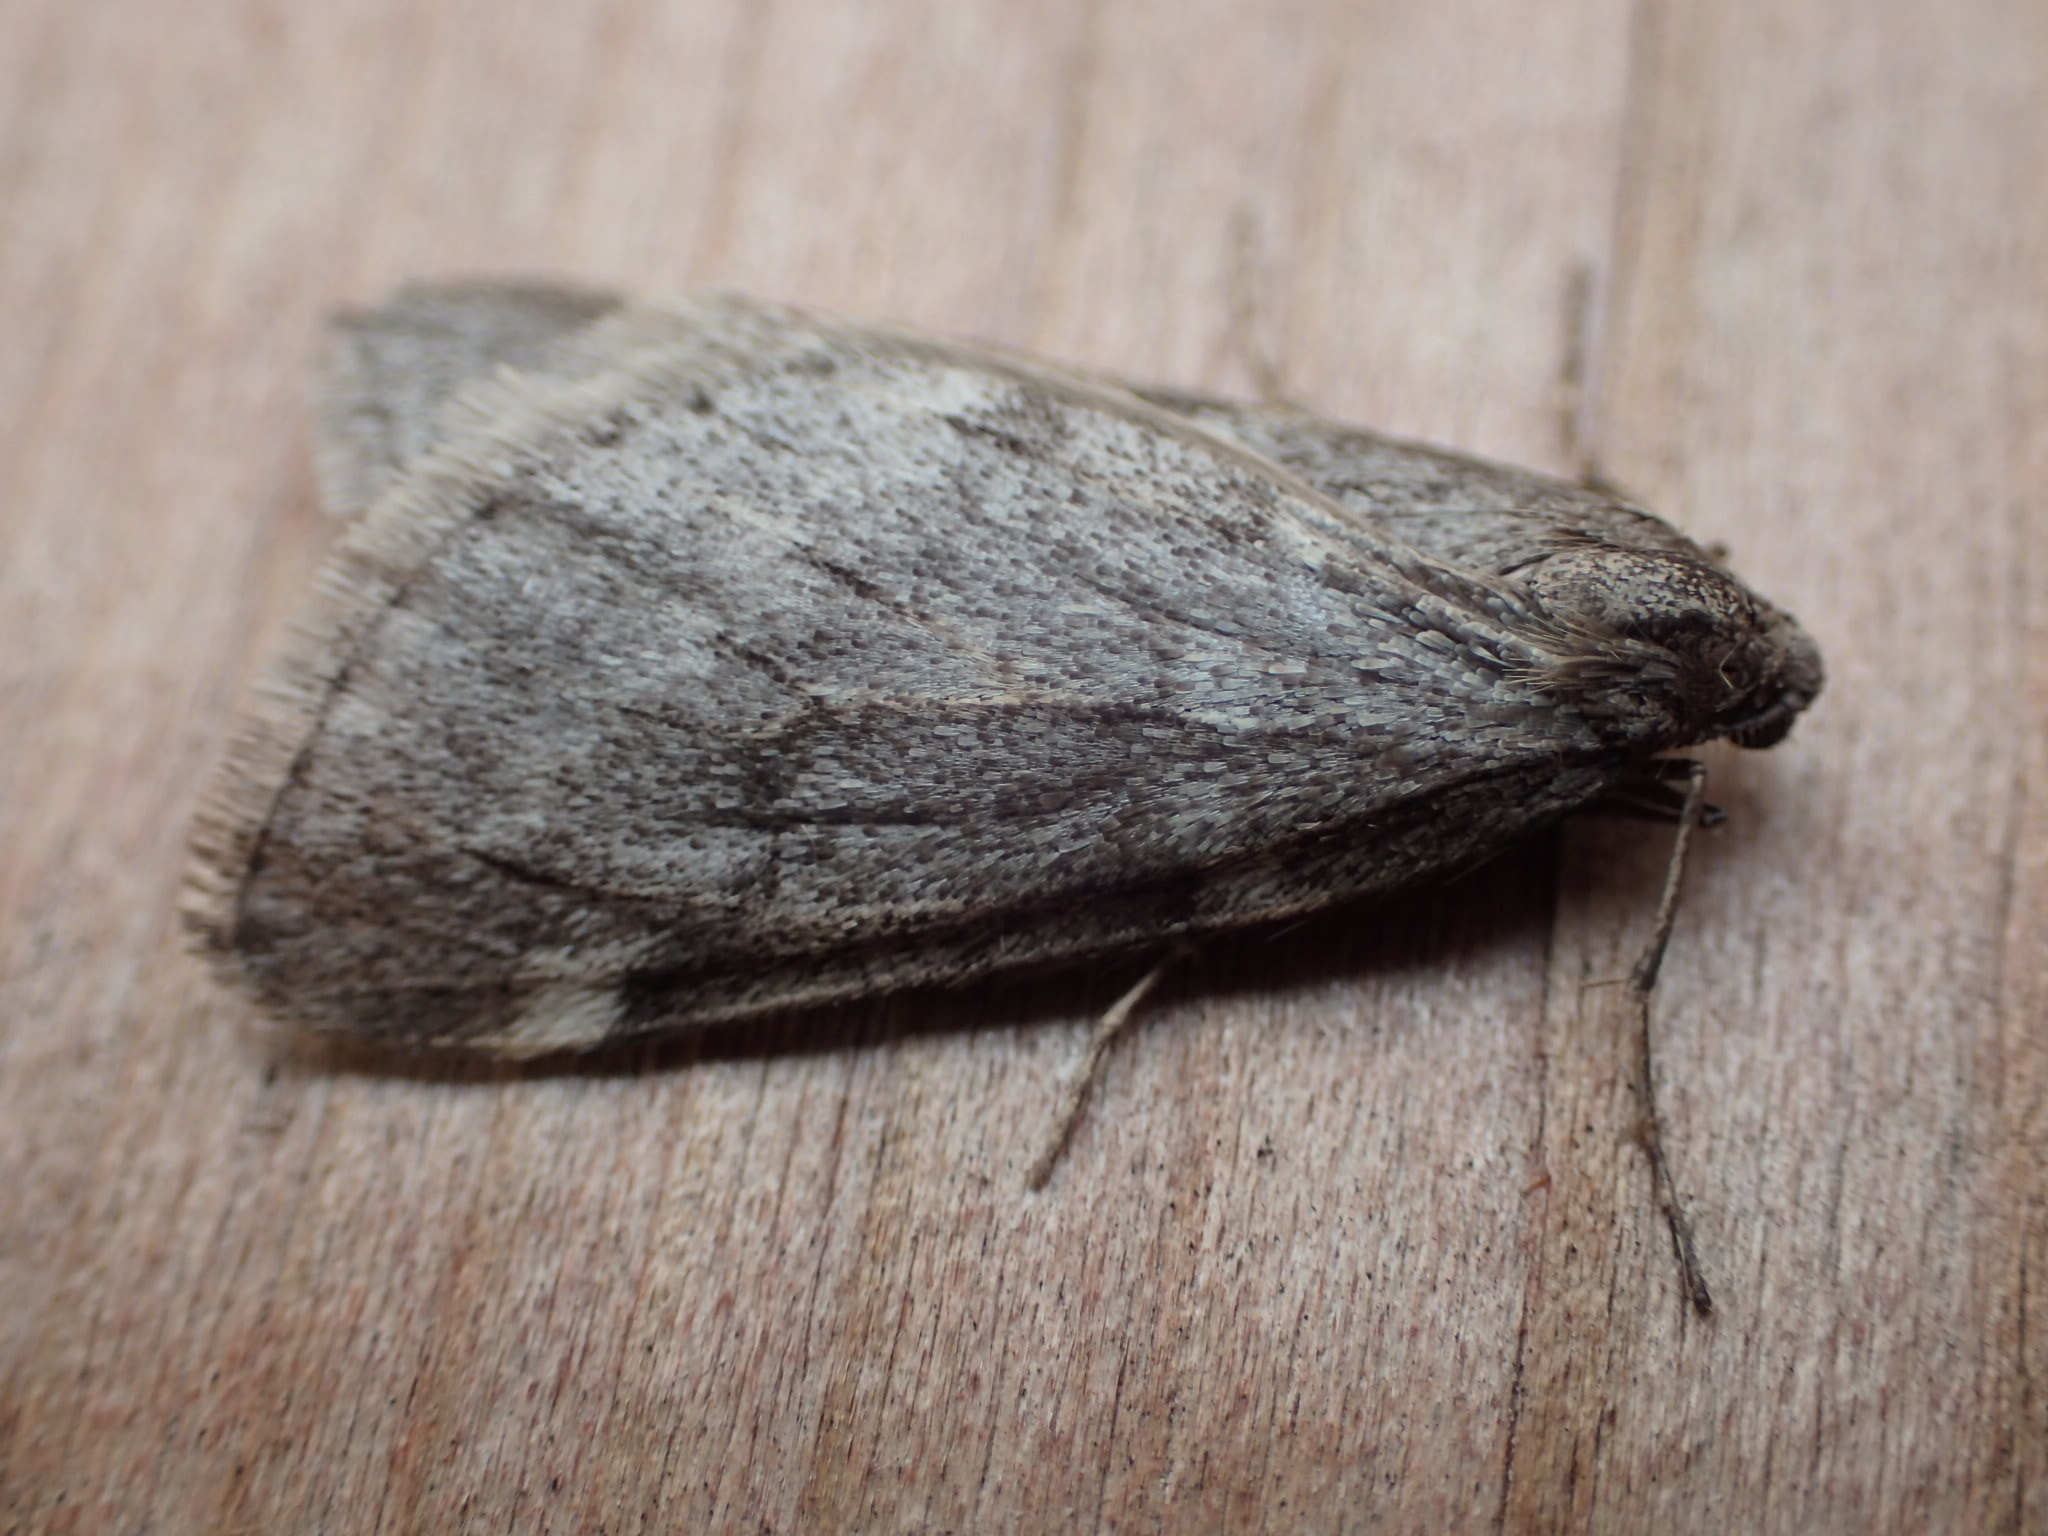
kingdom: Animalia
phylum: Arthropoda
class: Insecta
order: Lepidoptera
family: Geometridae
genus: Alsophila
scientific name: Alsophila pometaria
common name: Fall cankerworm
